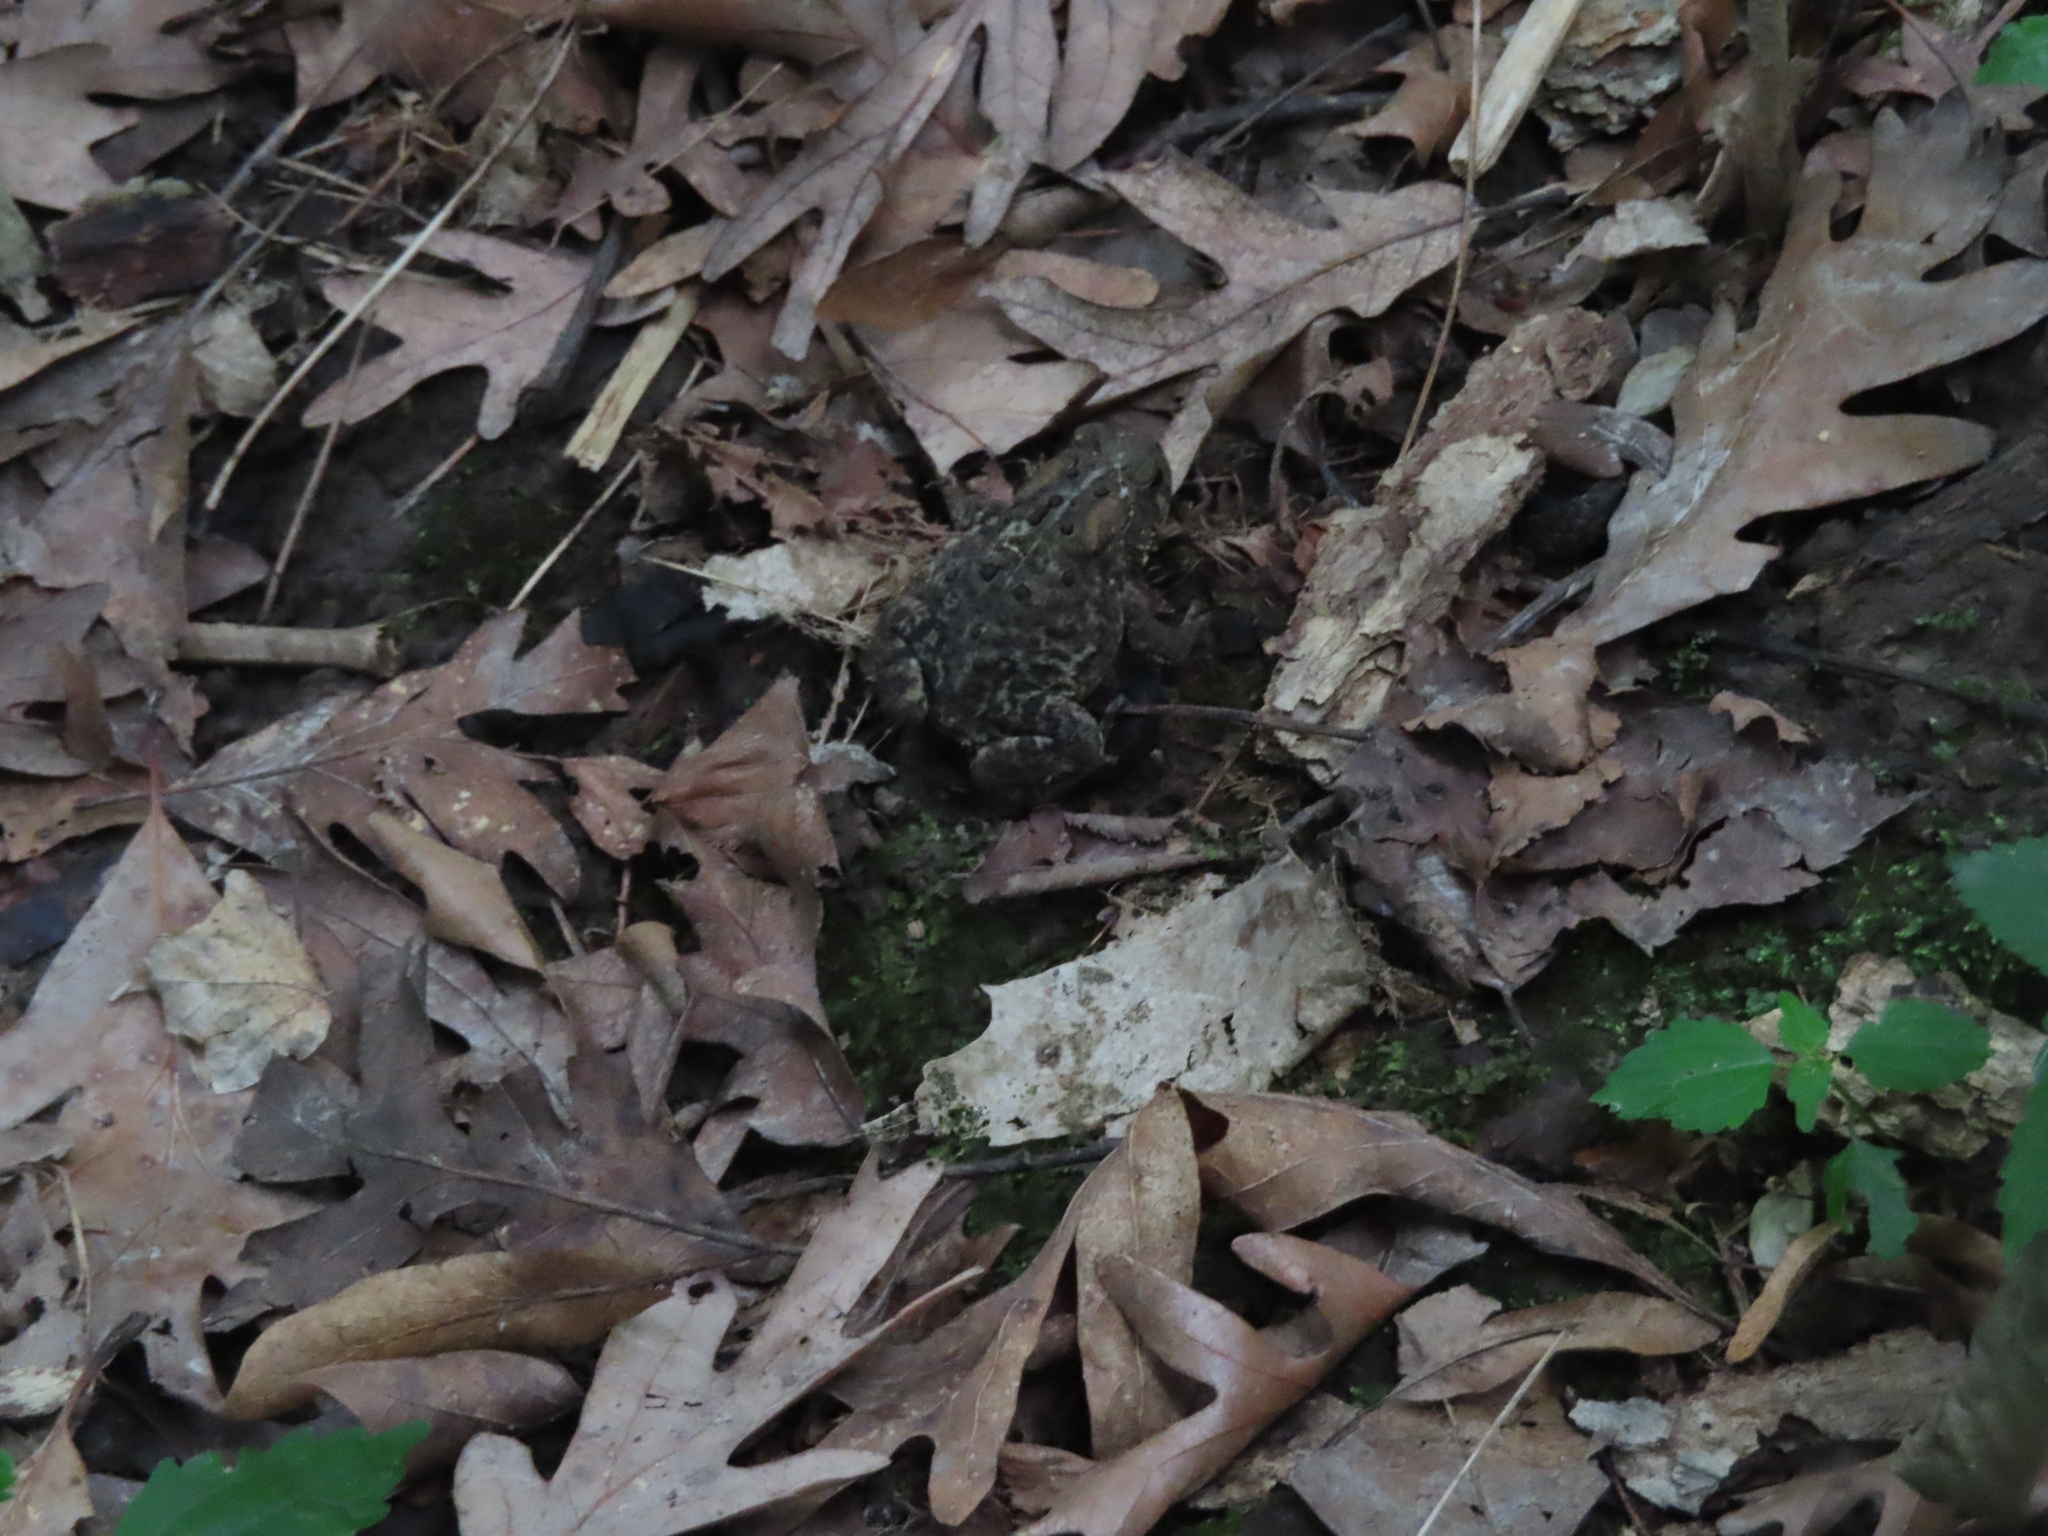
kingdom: Animalia
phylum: Chordata
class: Amphibia
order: Anura
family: Bufonidae
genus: Anaxyrus
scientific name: Anaxyrus americanus
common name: American toad
